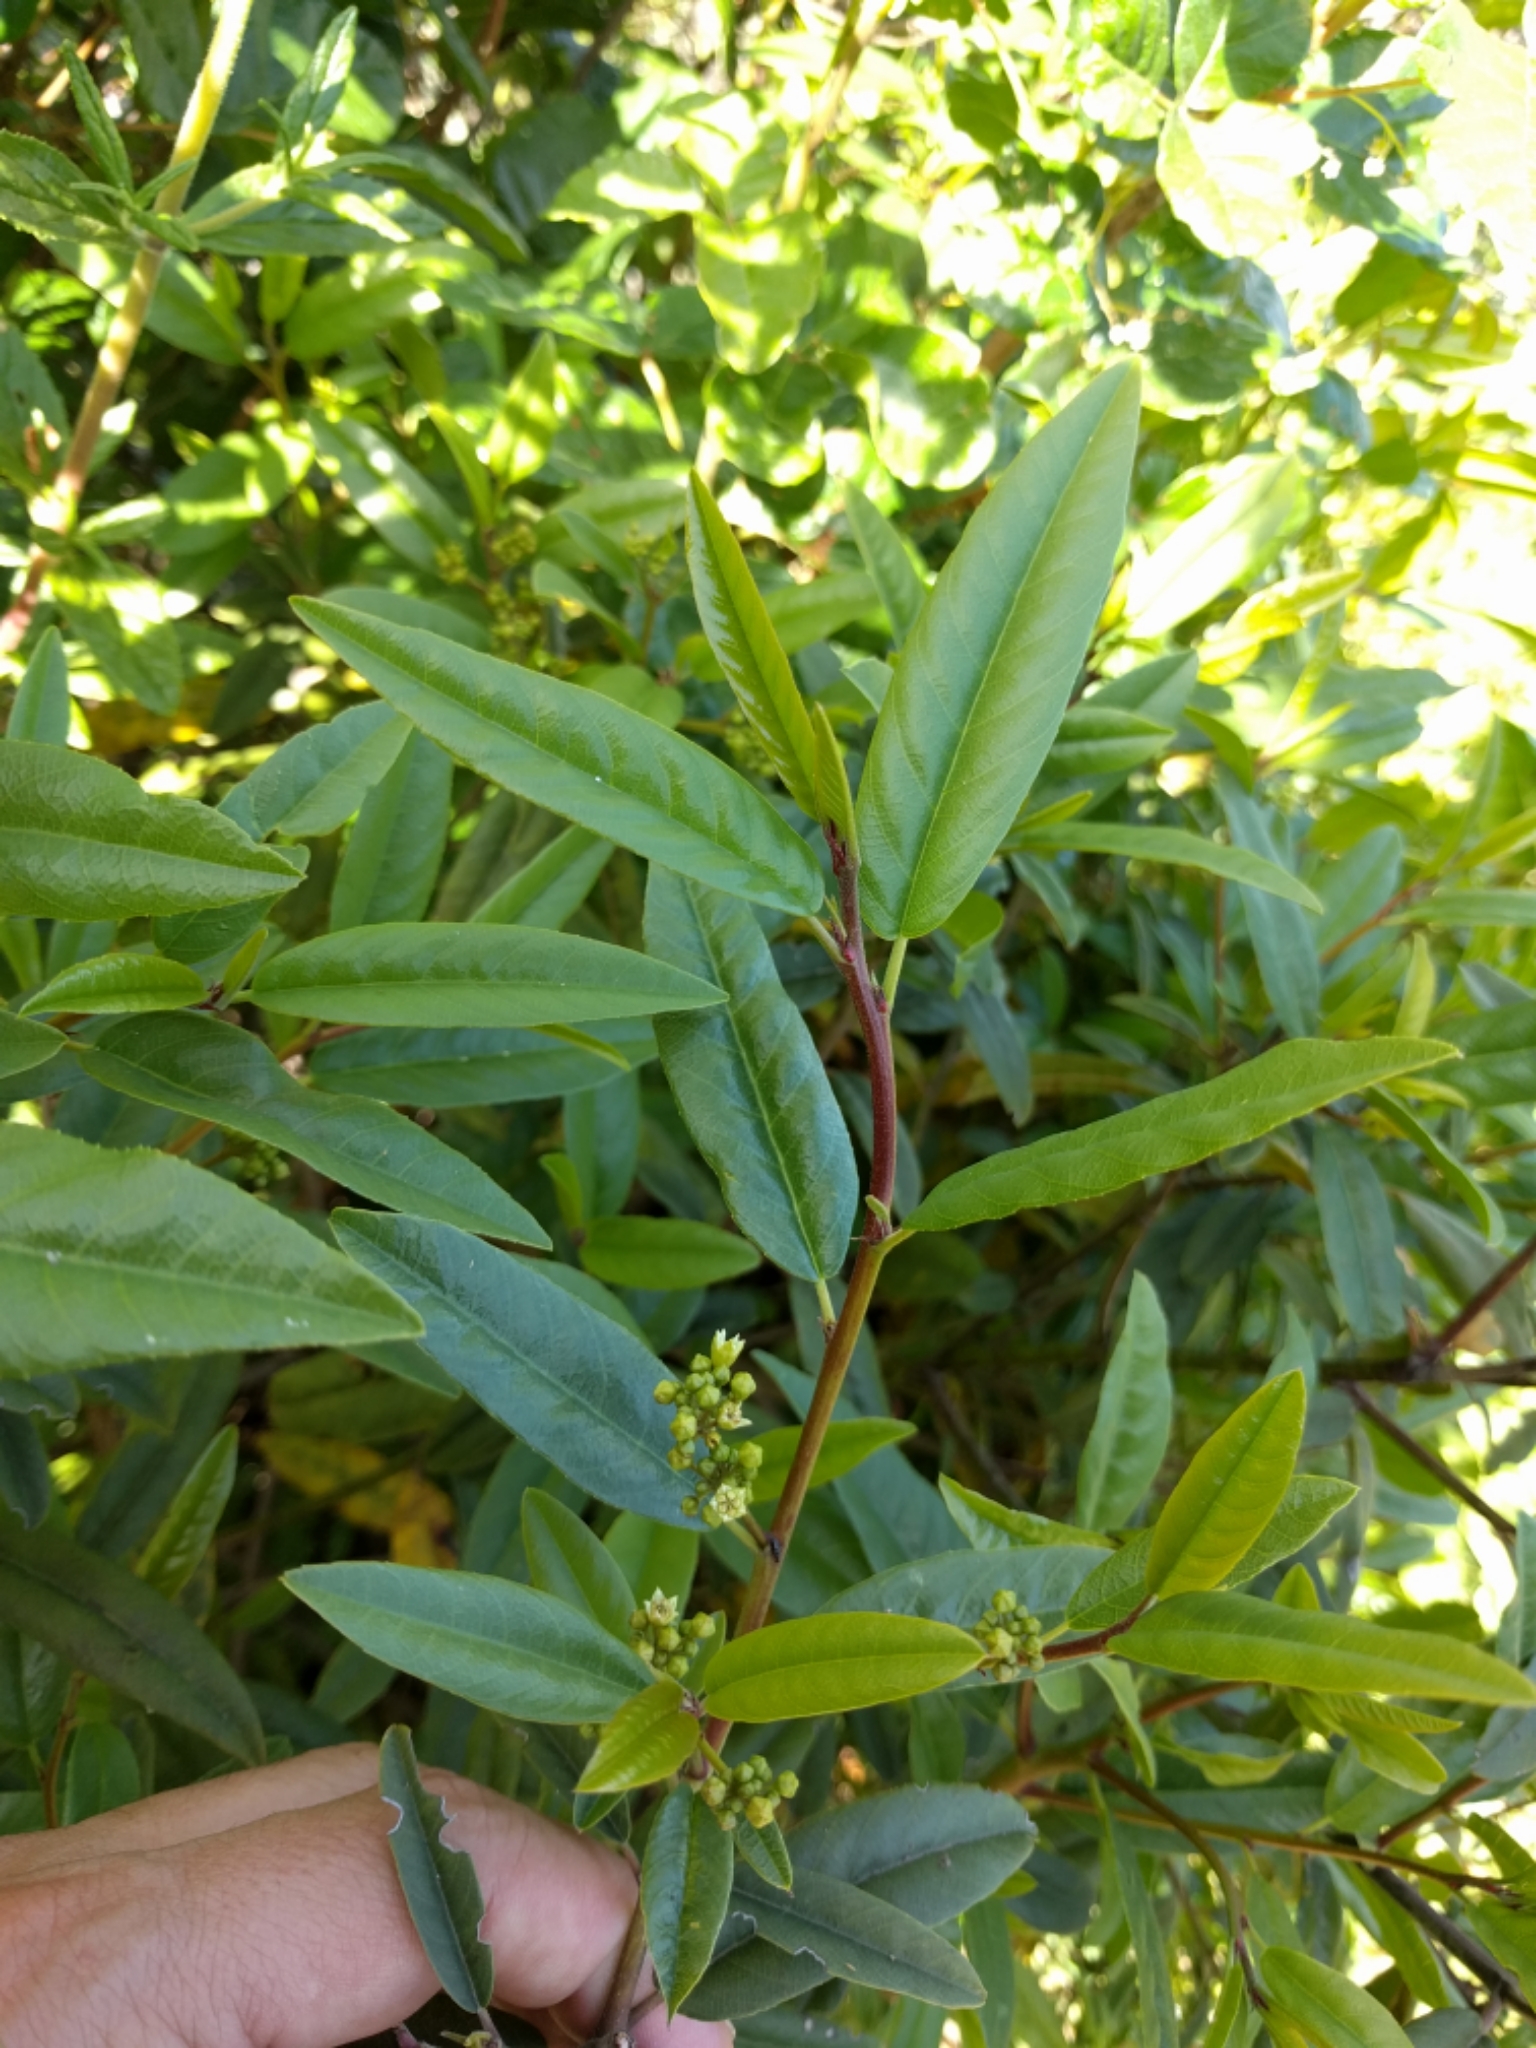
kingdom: Plantae
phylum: Tracheophyta
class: Magnoliopsida
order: Rosales
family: Rhamnaceae
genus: Frangula
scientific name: Frangula californica
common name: California buckthorn
